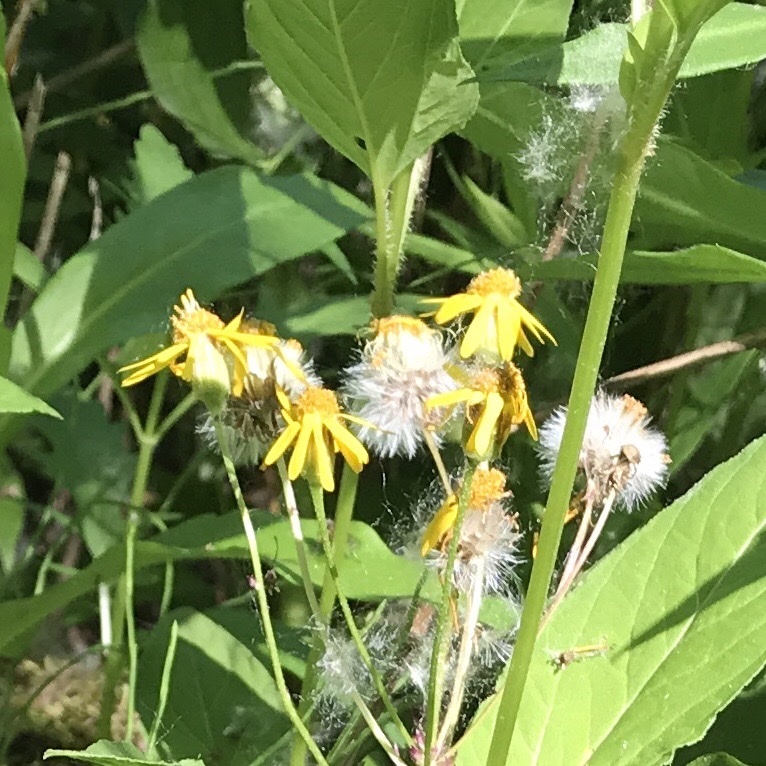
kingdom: Plantae
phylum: Tracheophyta
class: Magnoliopsida
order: Asterales
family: Asteraceae
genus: Packera
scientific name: Packera aurea
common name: Golden groundsel
